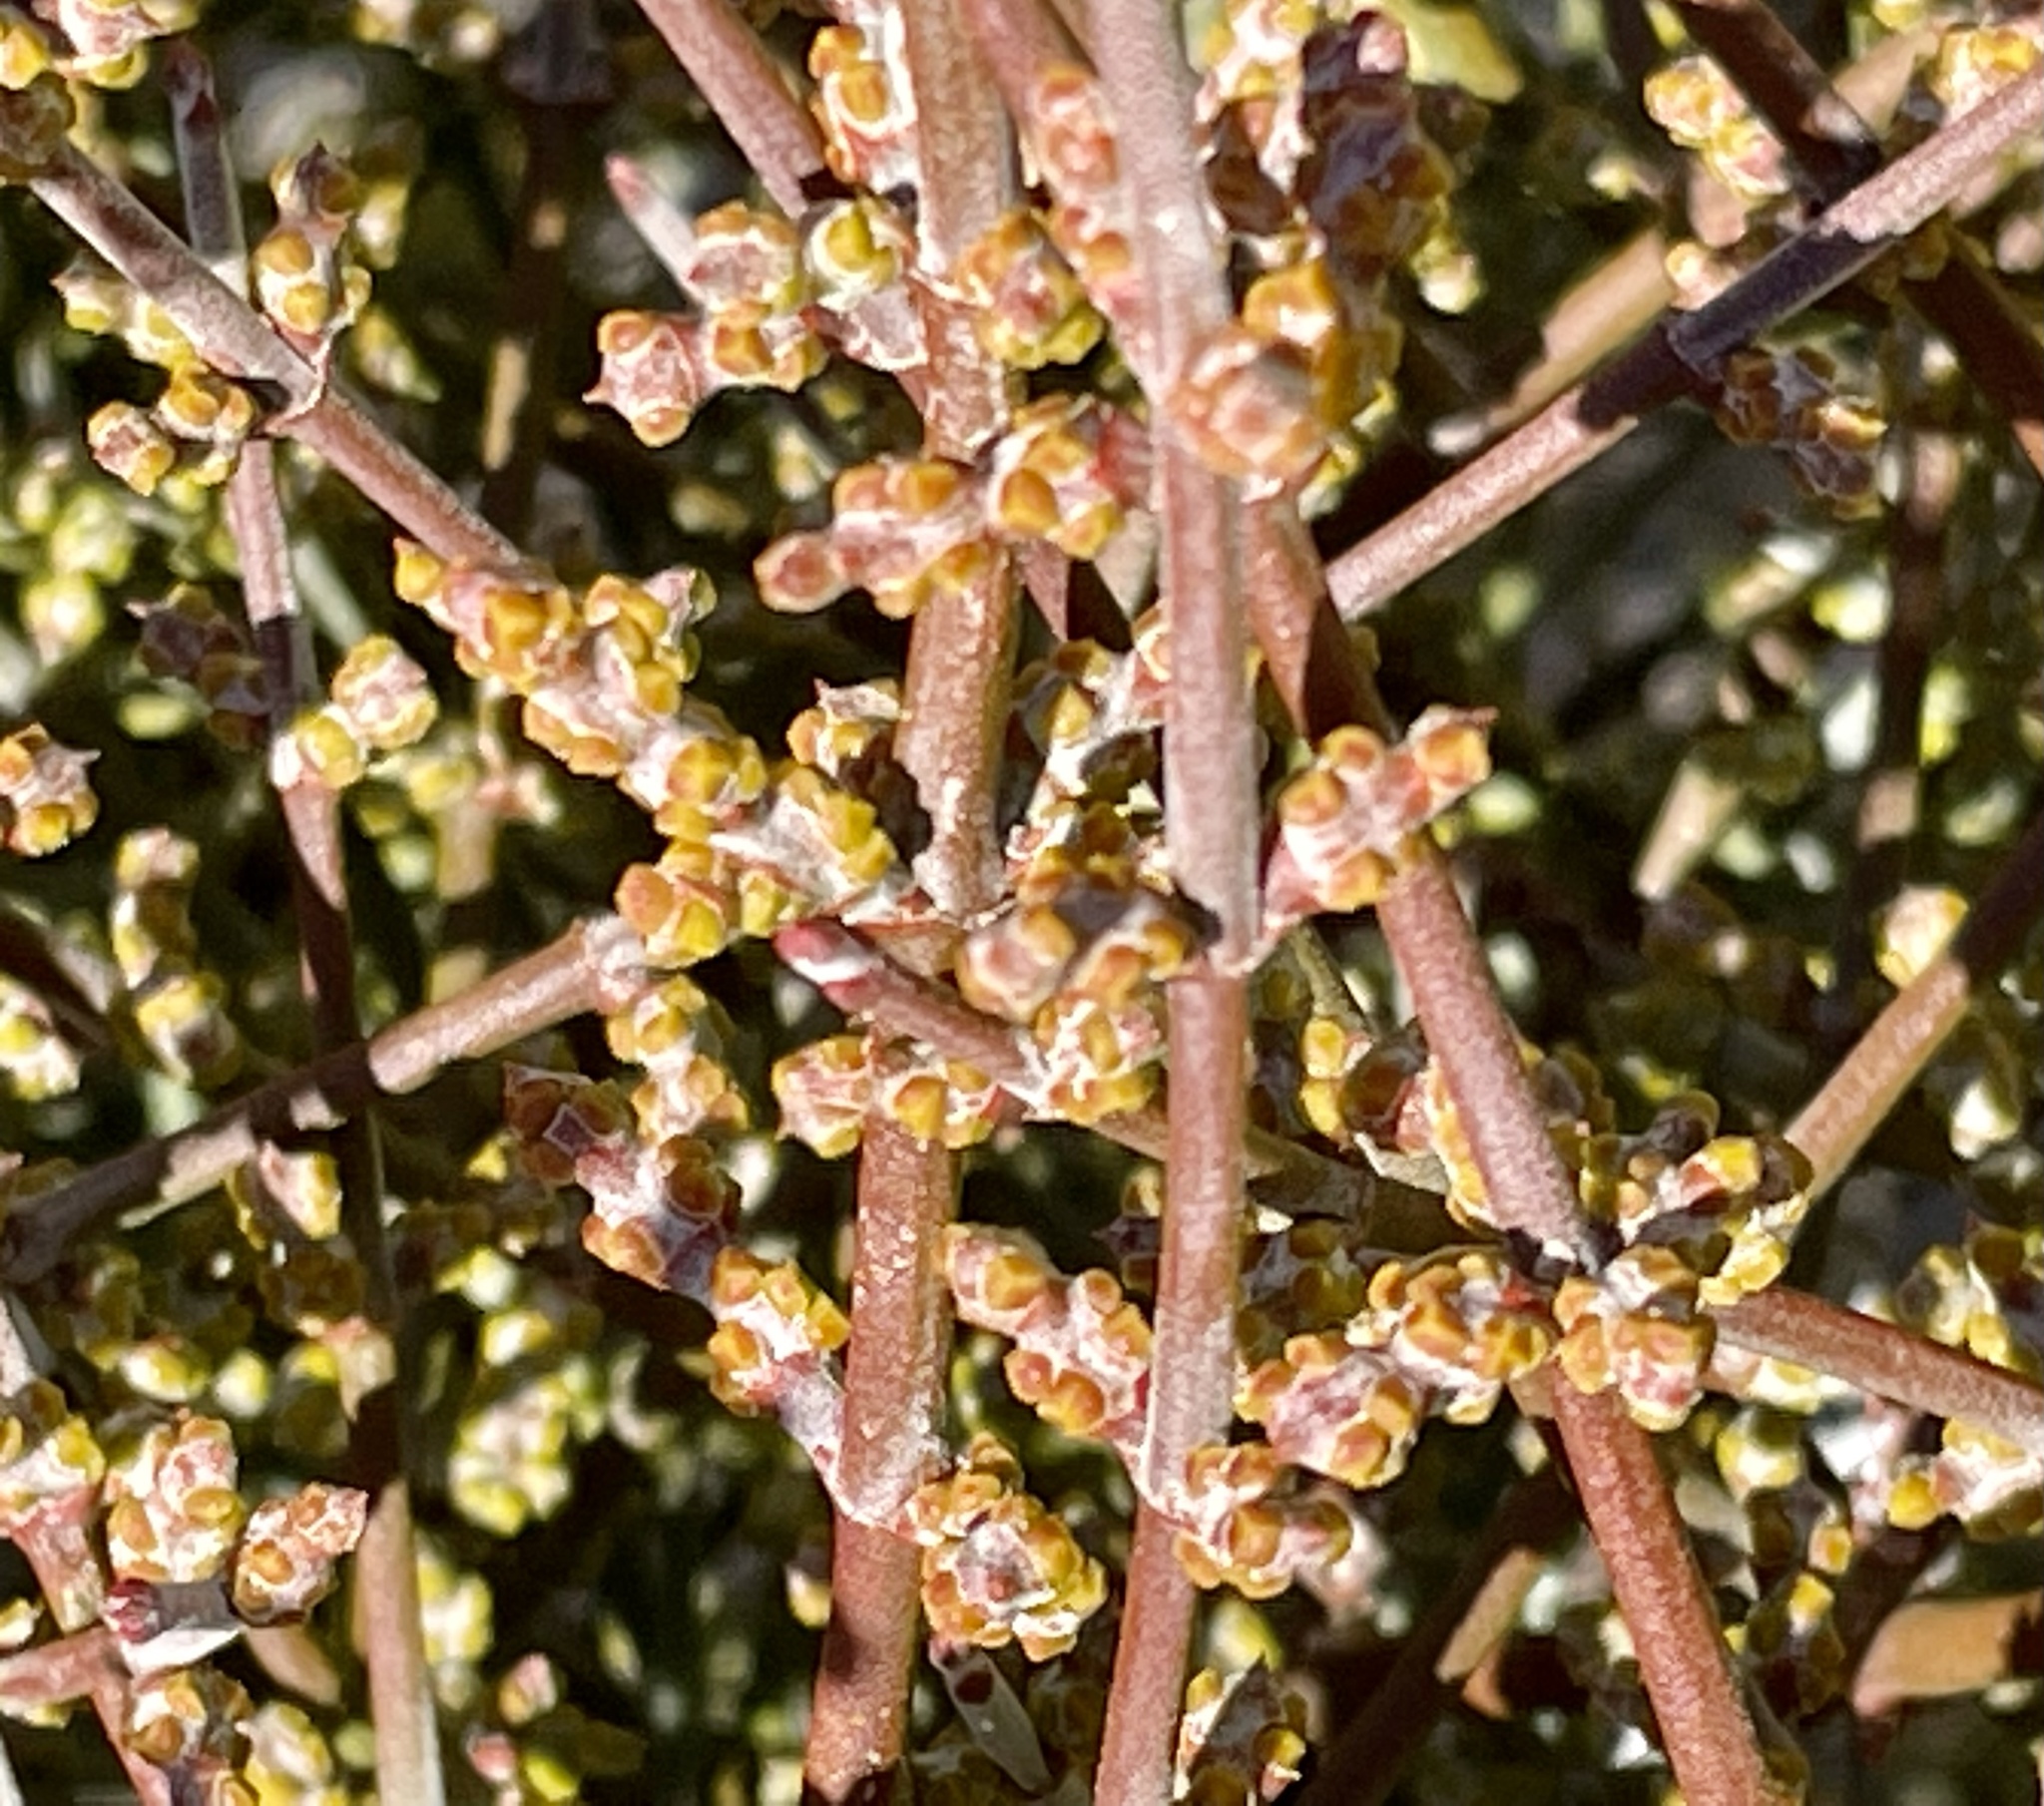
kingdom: Plantae
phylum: Tracheophyta
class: Magnoliopsida
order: Santalales
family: Viscaceae
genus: Phoradendron
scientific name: Phoradendron californicum
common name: Acacia mistletoe
